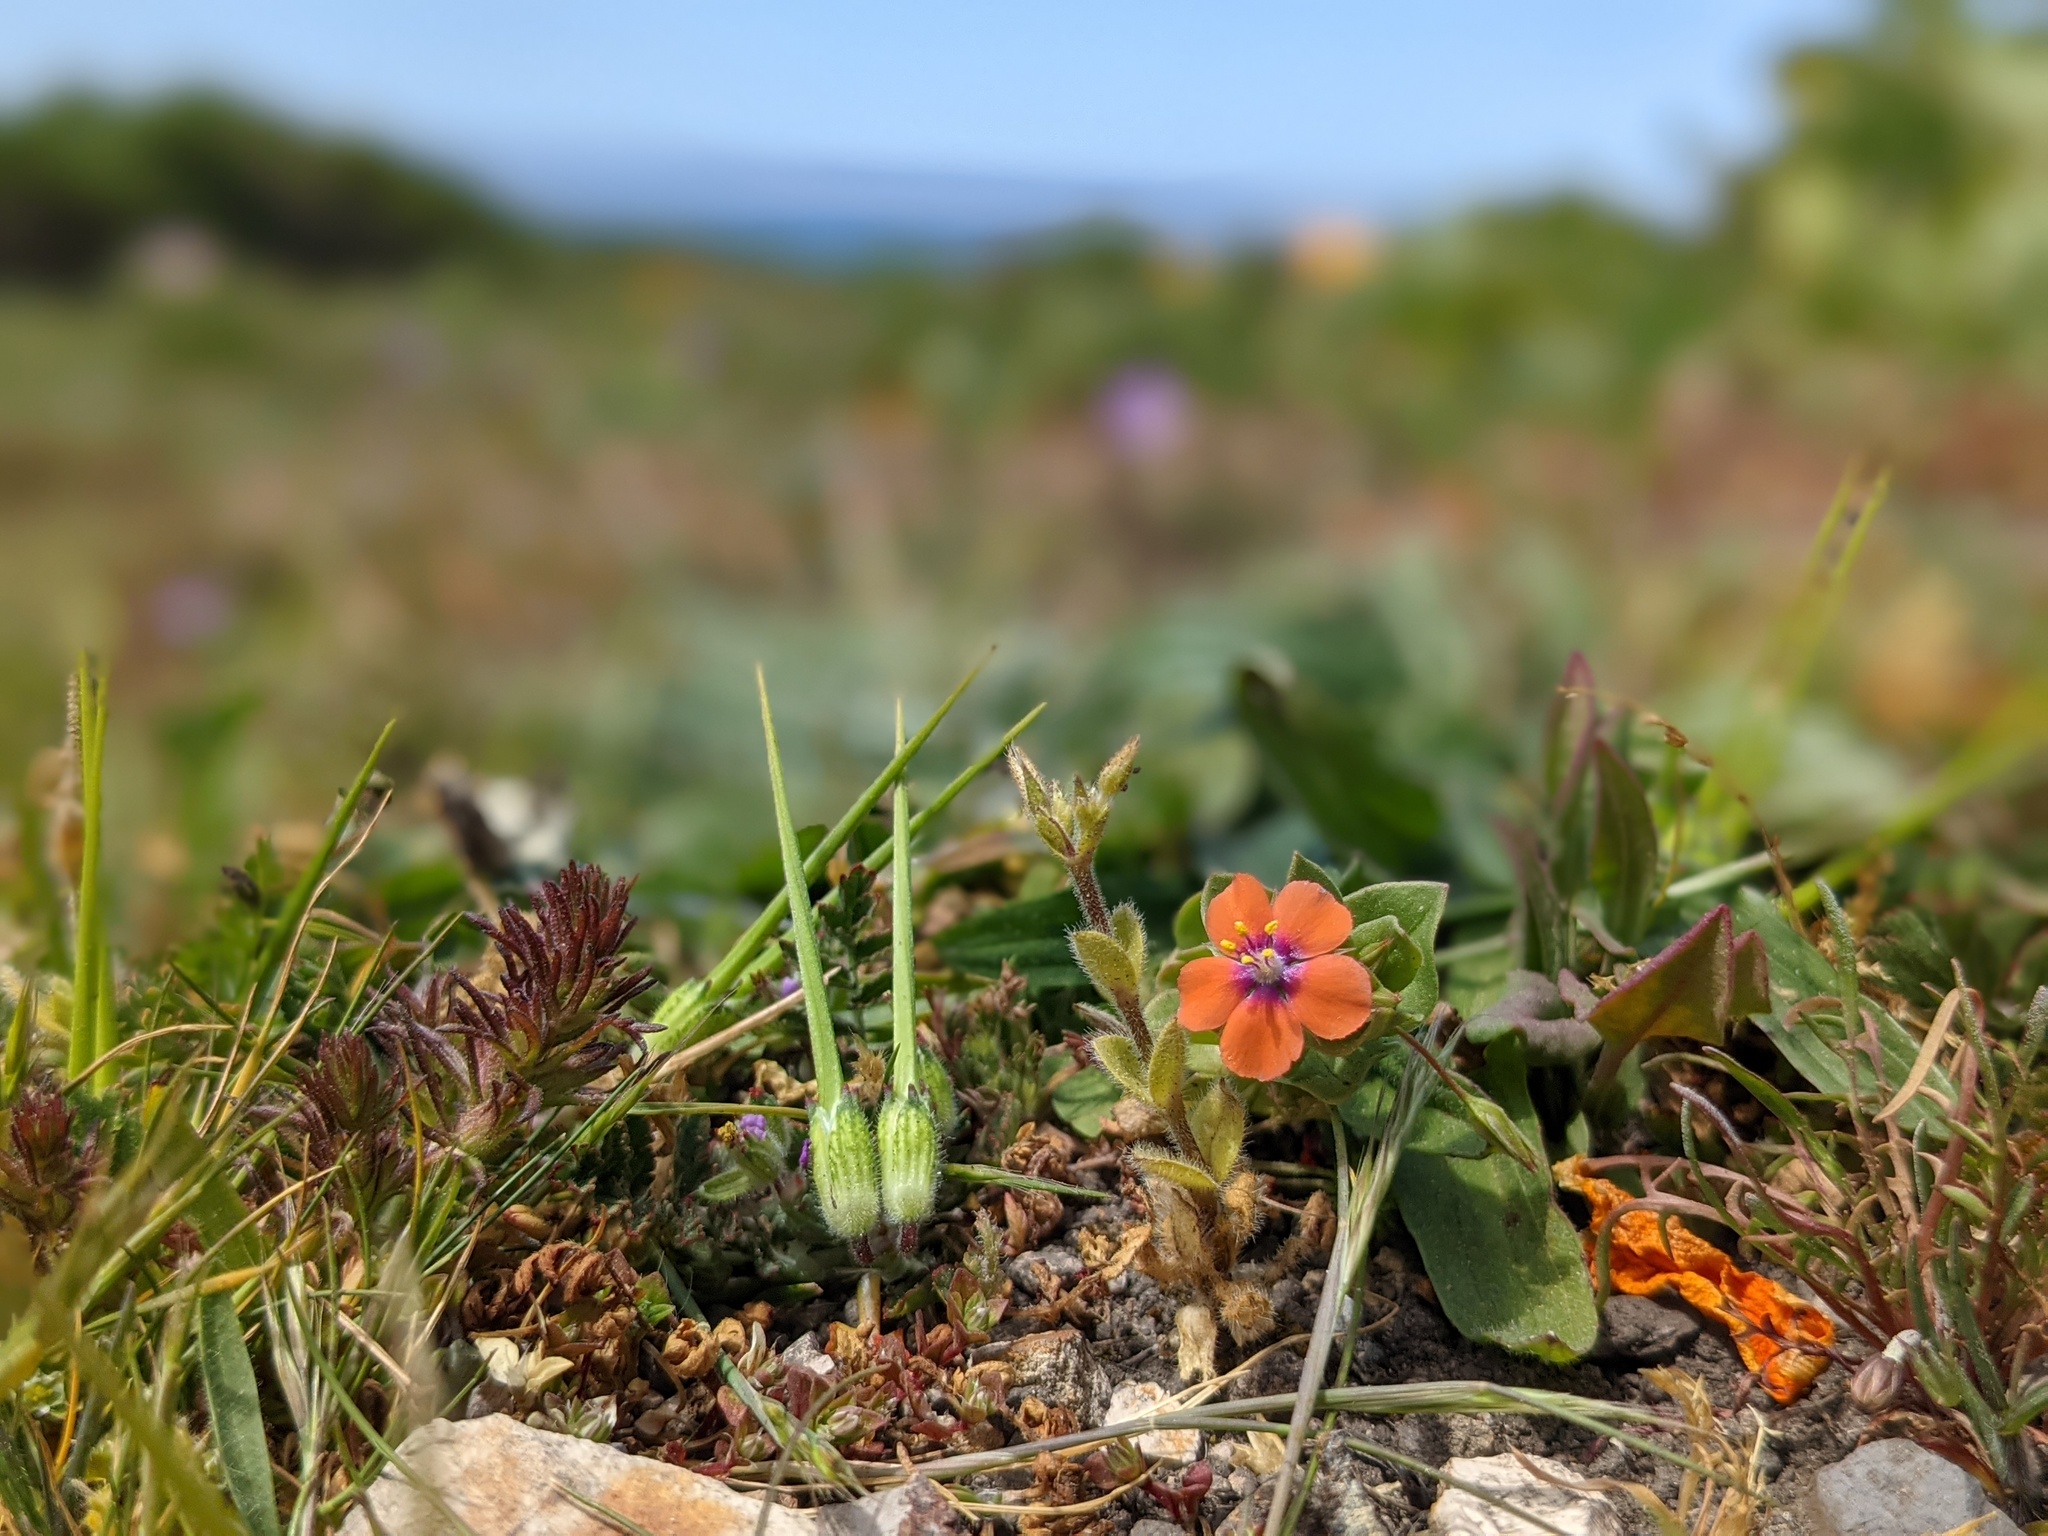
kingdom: Plantae
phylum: Tracheophyta
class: Magnoliopsida
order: Ericales
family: Primulaceae
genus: Lysimachia
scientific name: Lysimachia arvensis
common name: Scarlet pimpernel
